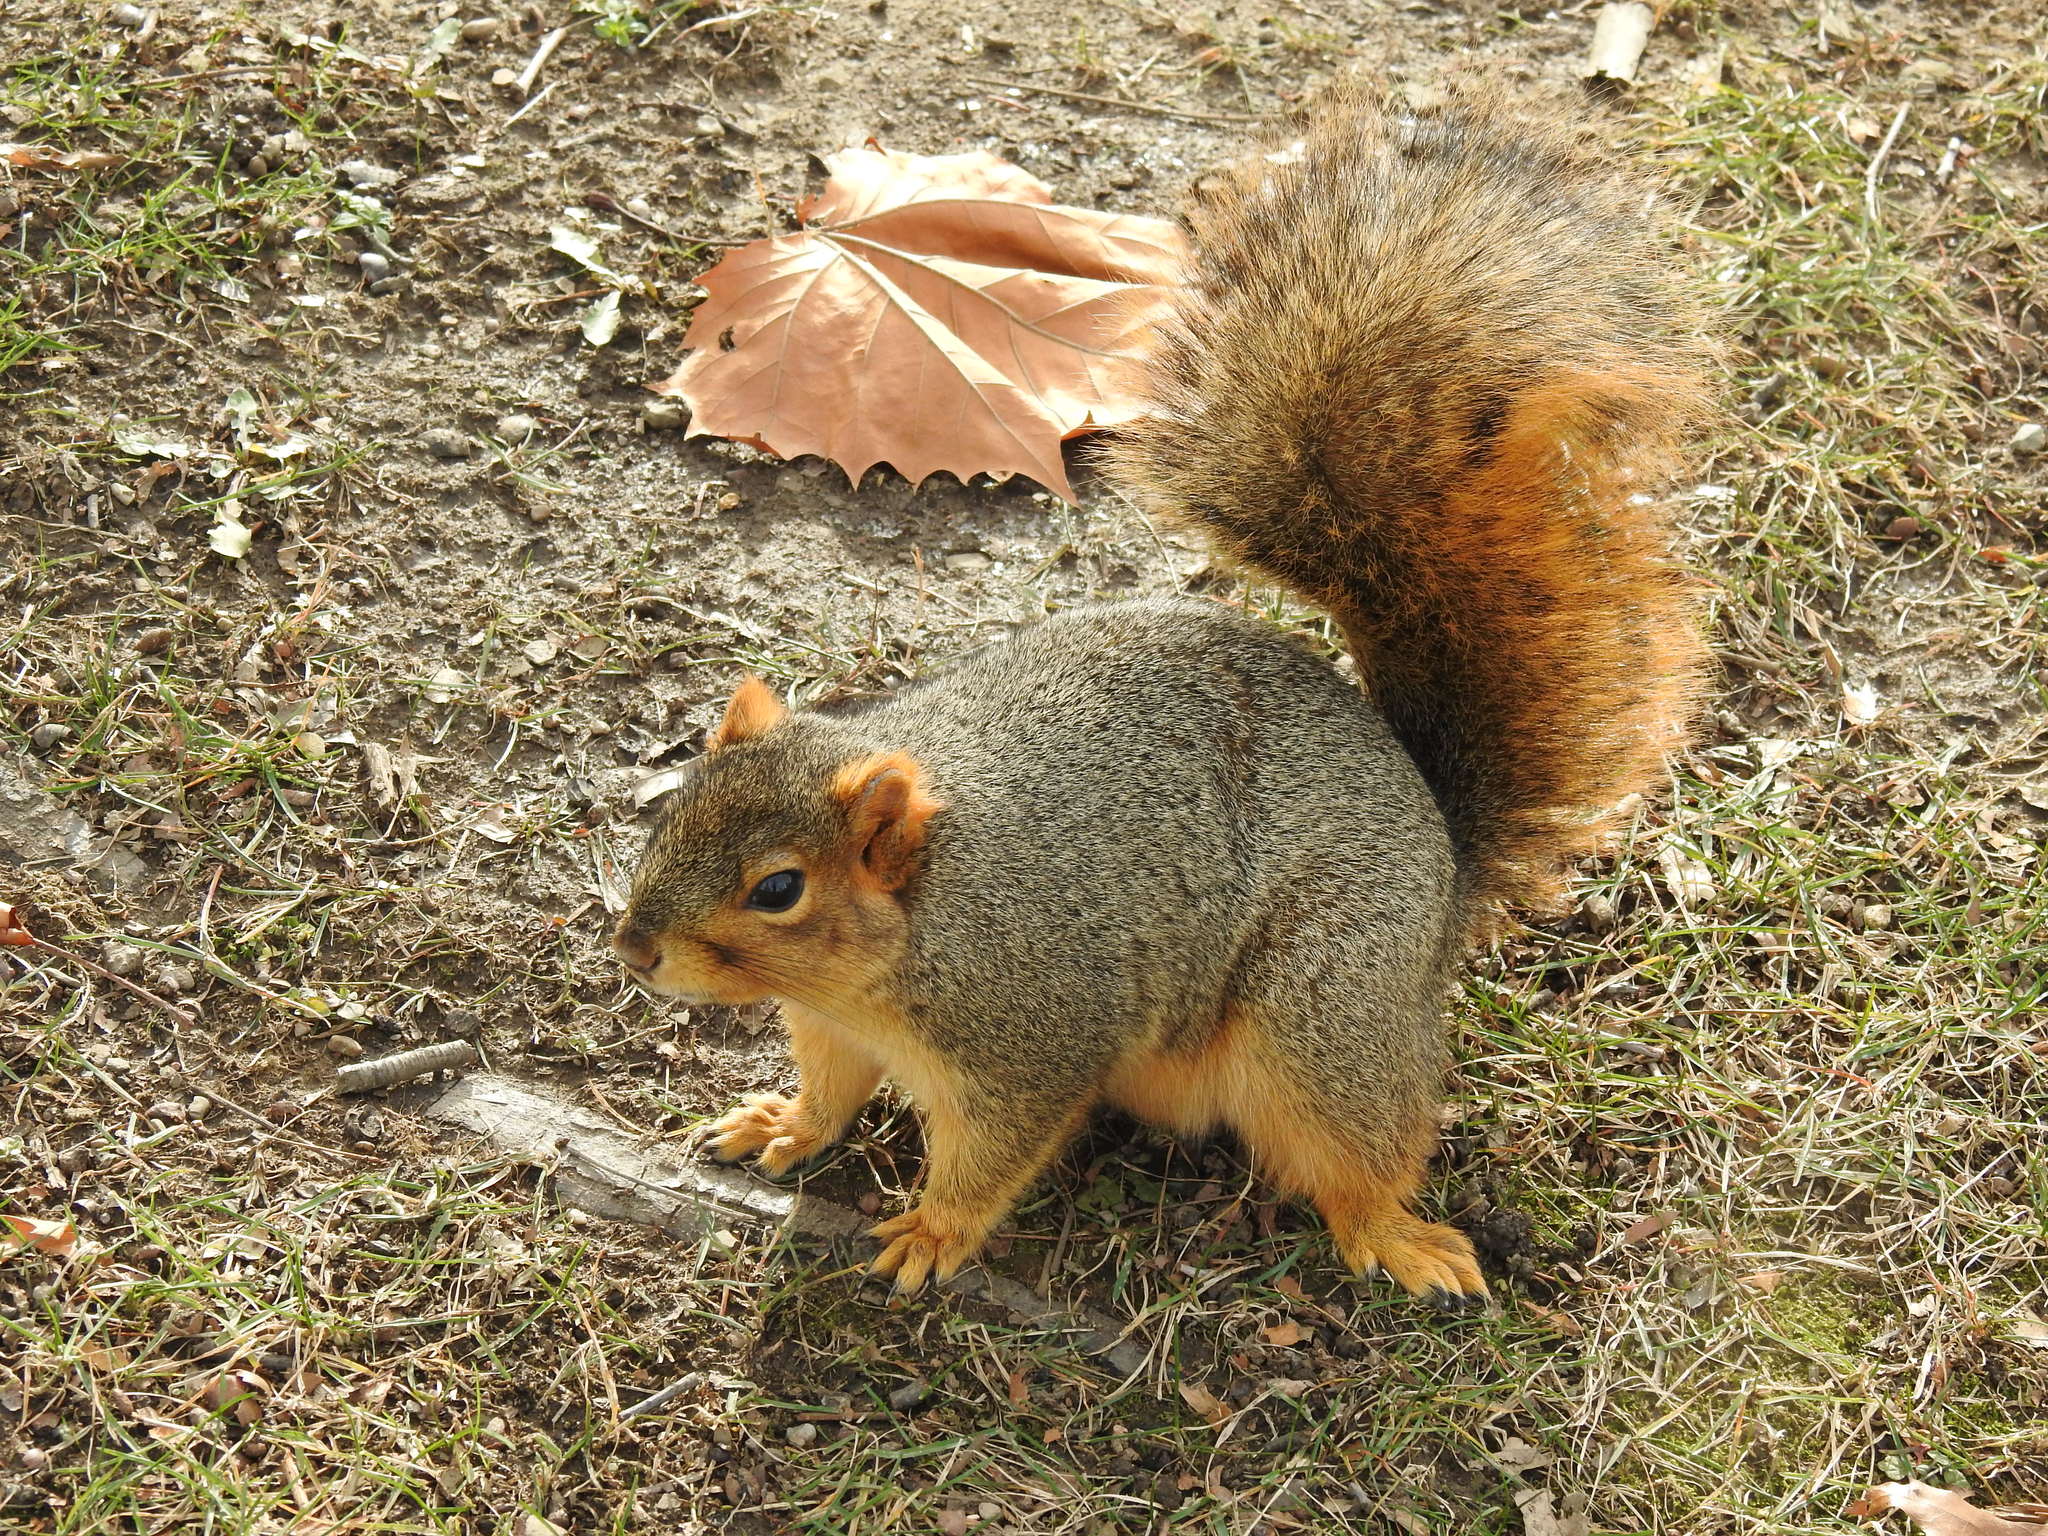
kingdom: Animalia
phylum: Chordata
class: Mammalia
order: Rodentia
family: Sciuridae
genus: Sciurus
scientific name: Sciurus niger
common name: Fox squirrel
